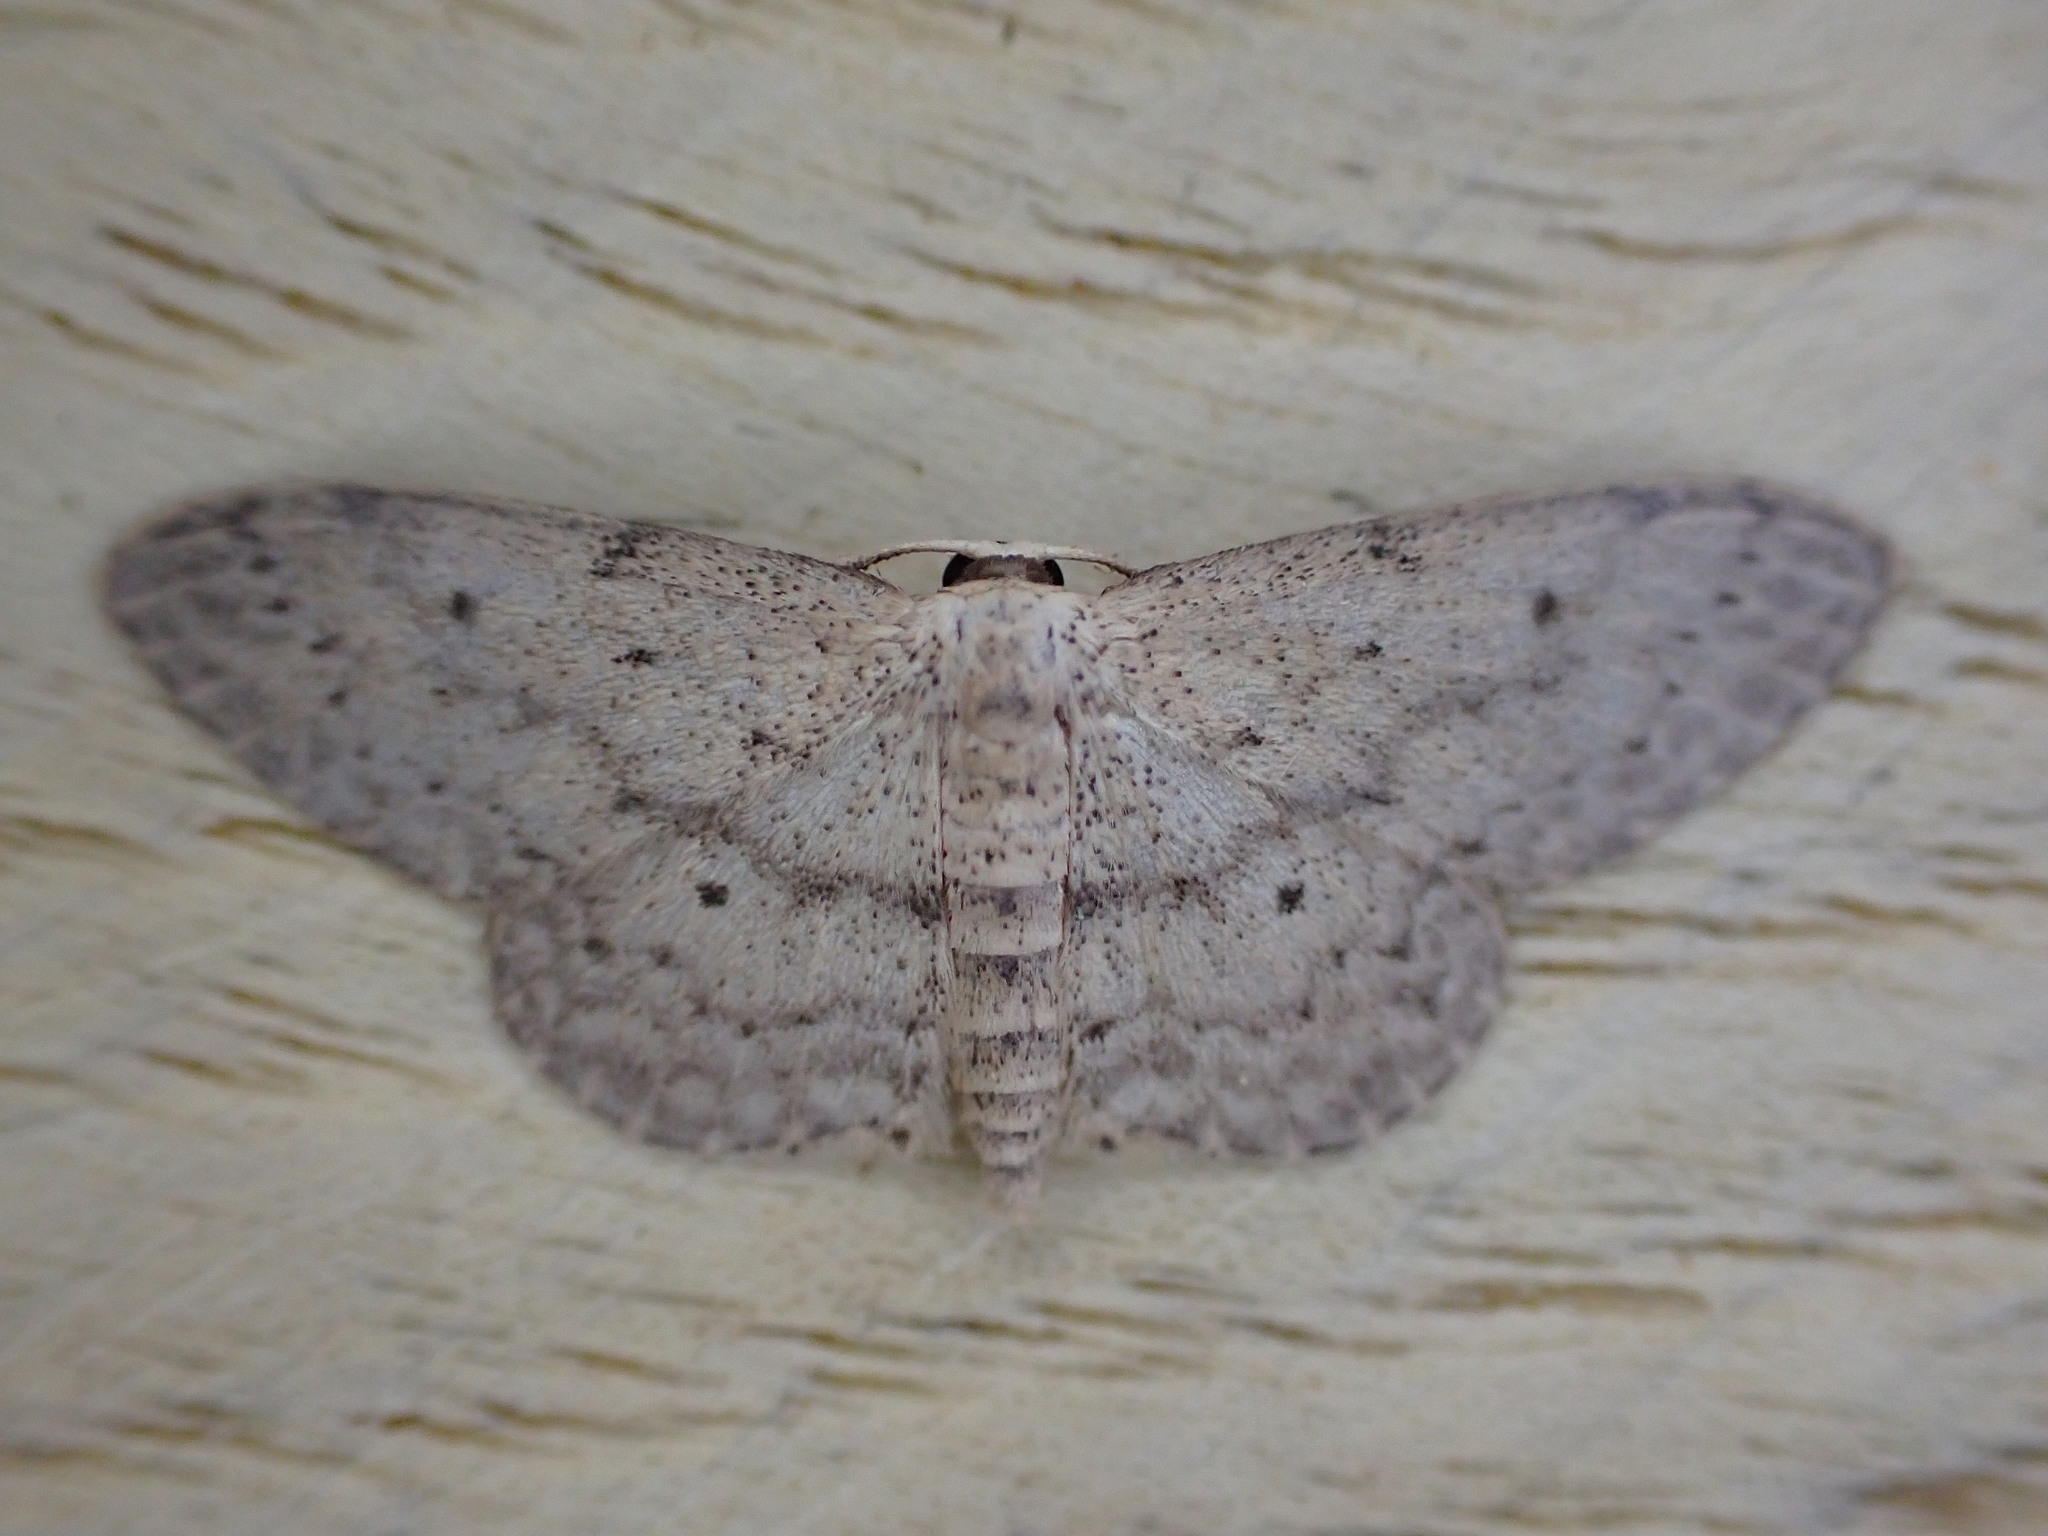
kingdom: Animalia
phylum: Arthropoda
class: Insecta
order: Lepidoptera
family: Geometridae
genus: Idaea
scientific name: Idaea seriata
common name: Small dusty wave
